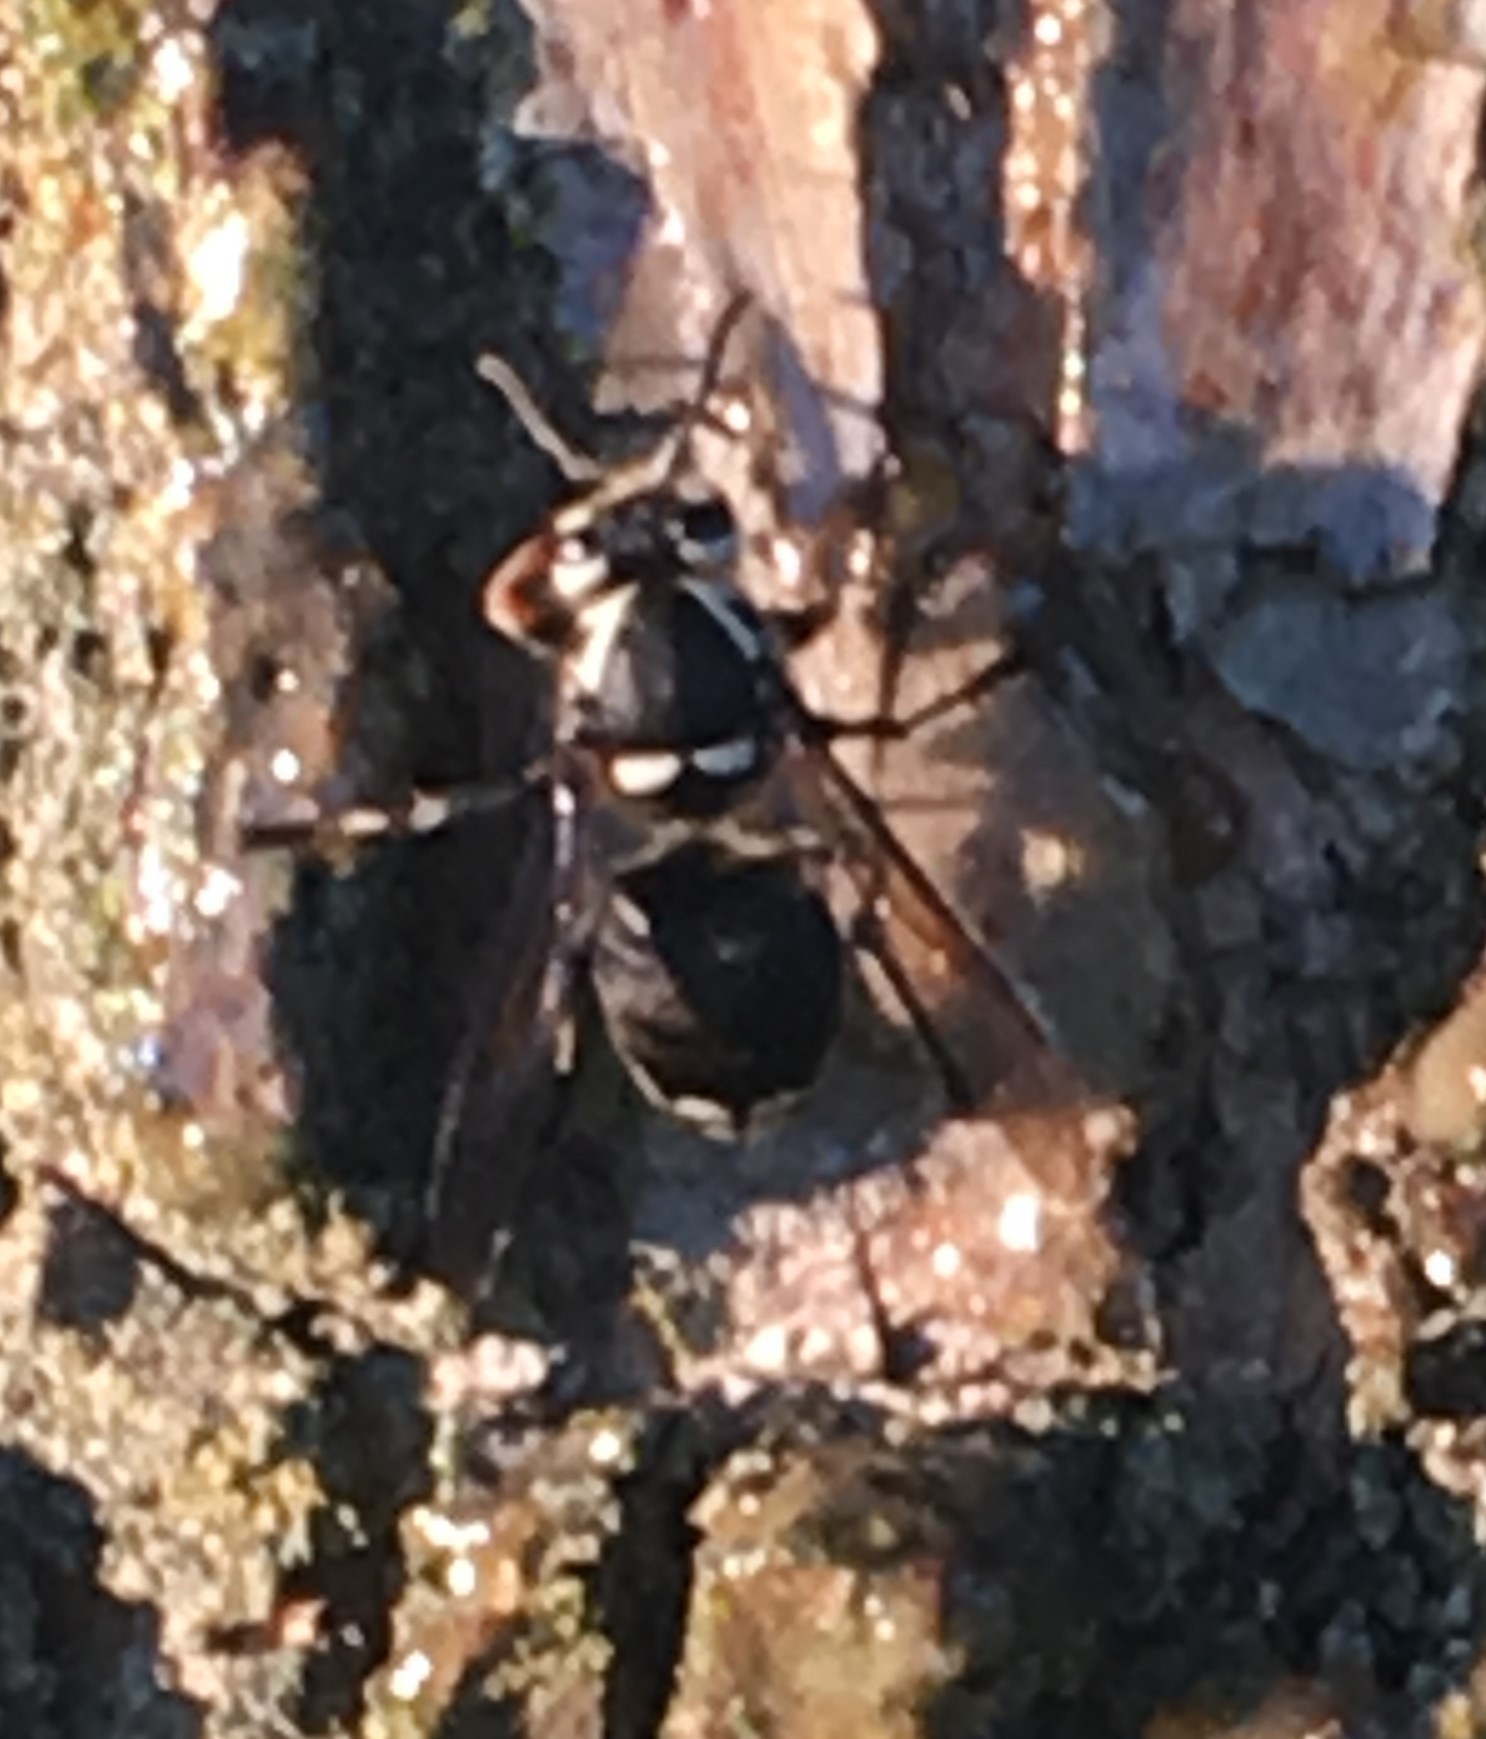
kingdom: Animalia
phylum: Arthropoda
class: Insecta
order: Hymenoptera
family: Vespidae
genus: Dolichovespula
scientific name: Dolichovespula maculata
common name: Bald-faced hornet
